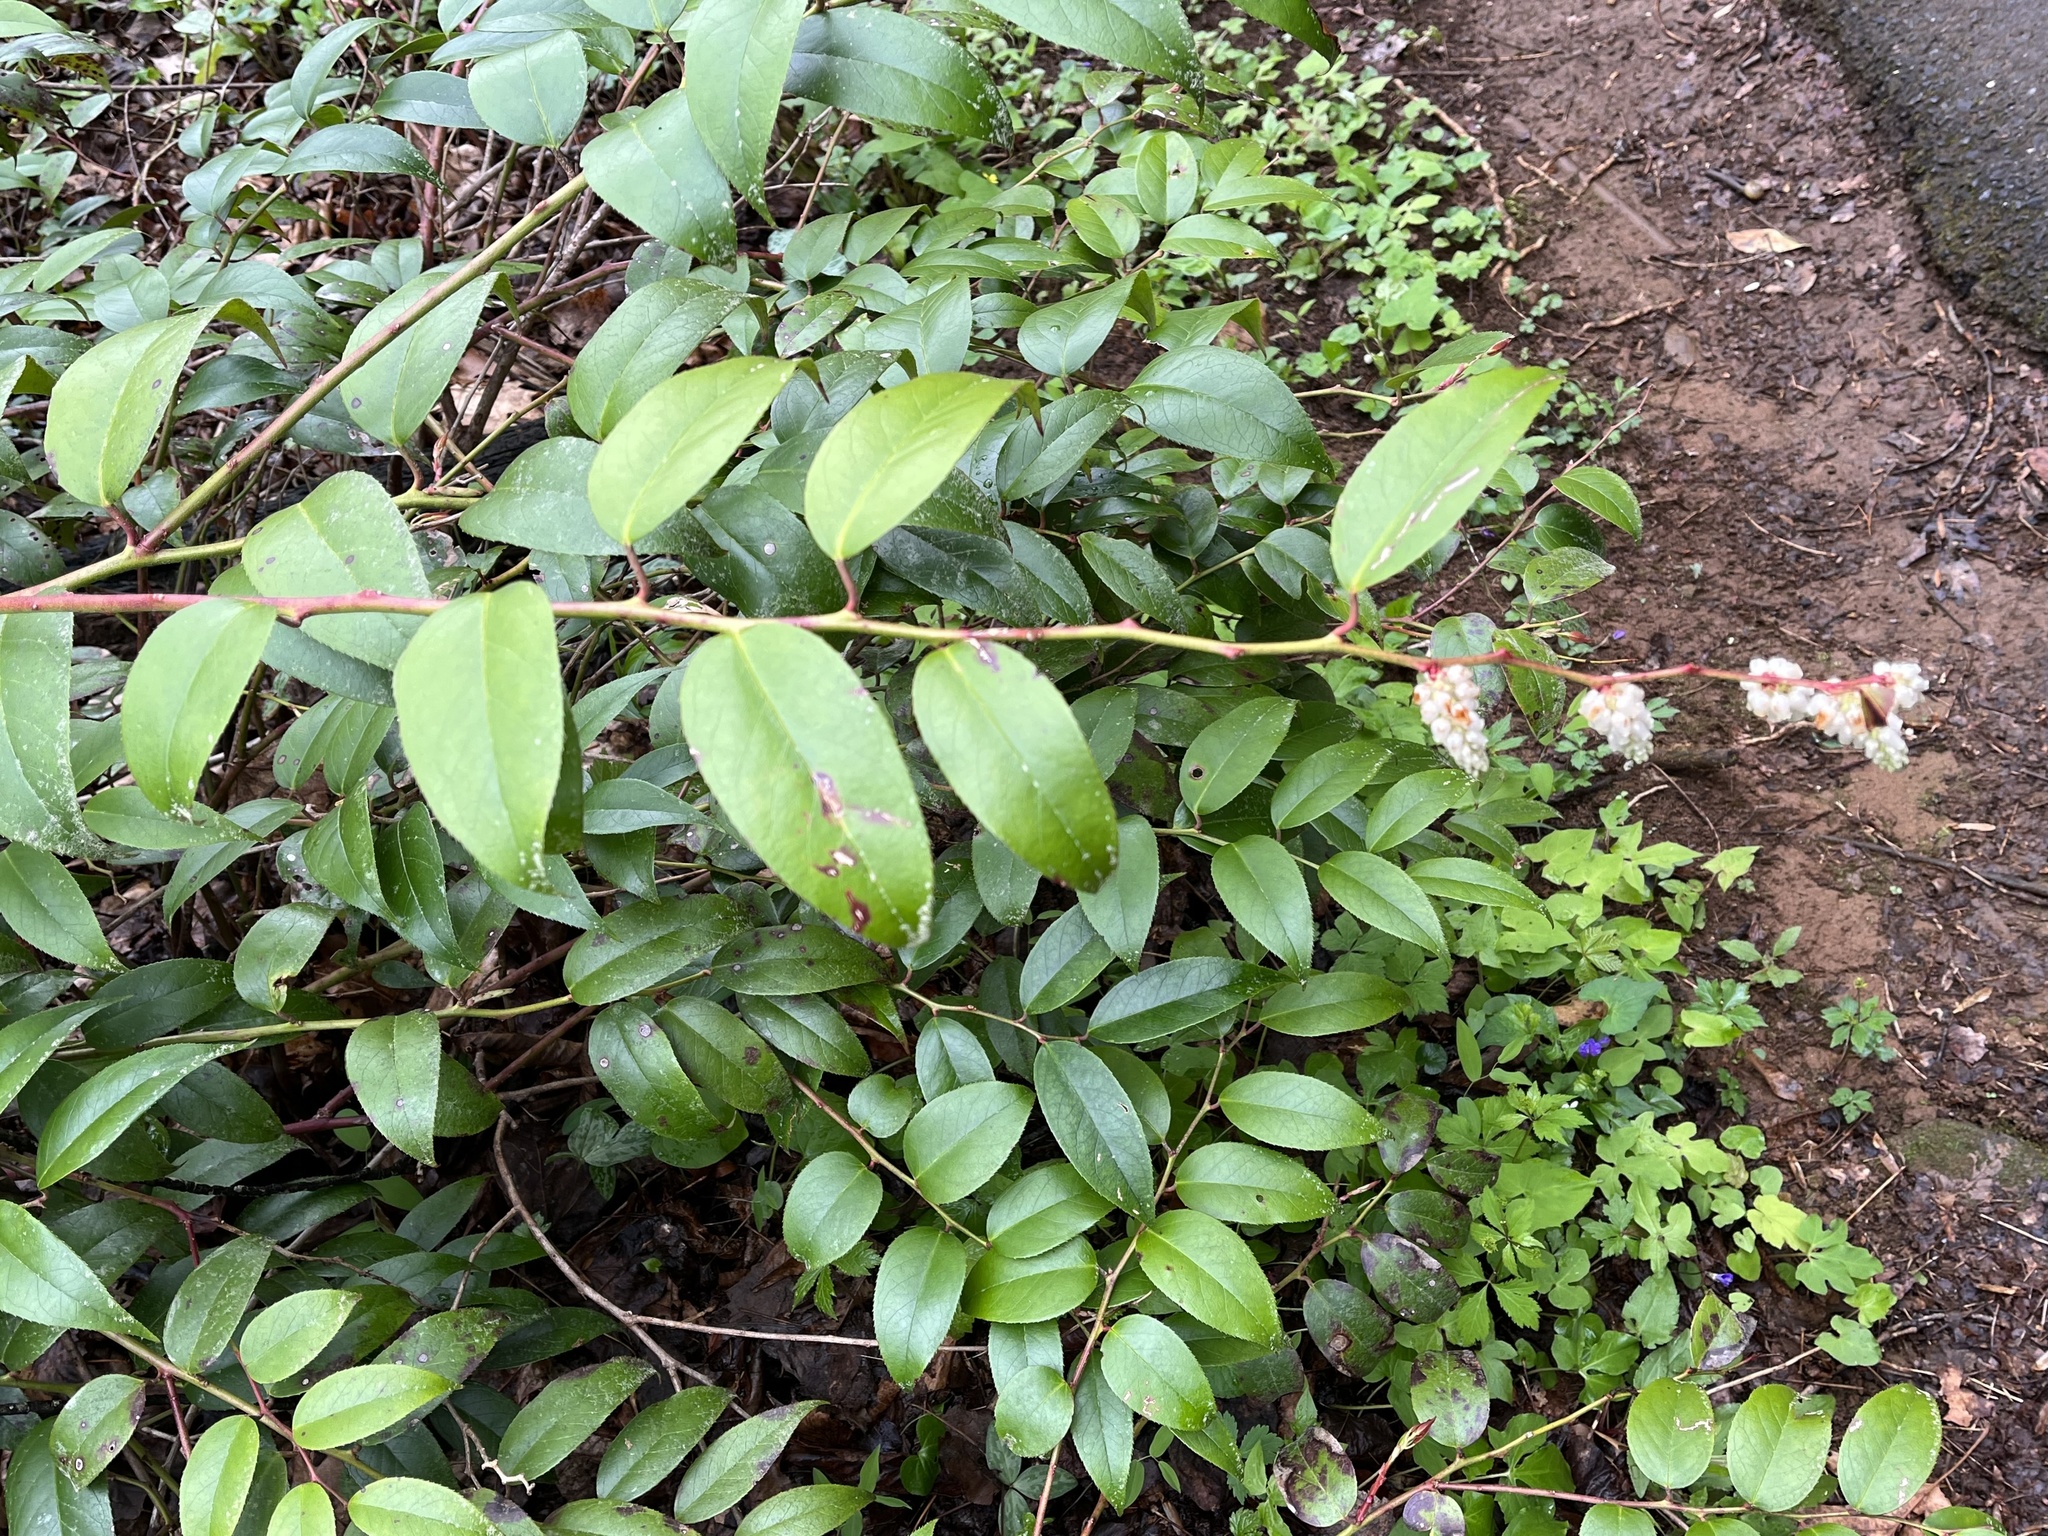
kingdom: Plantae
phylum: Tracheophyta
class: Magnoliopsida
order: Ericales
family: Ericaceae
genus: Leucothoe
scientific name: Leucothoe fontanesiana
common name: Fetterbush
